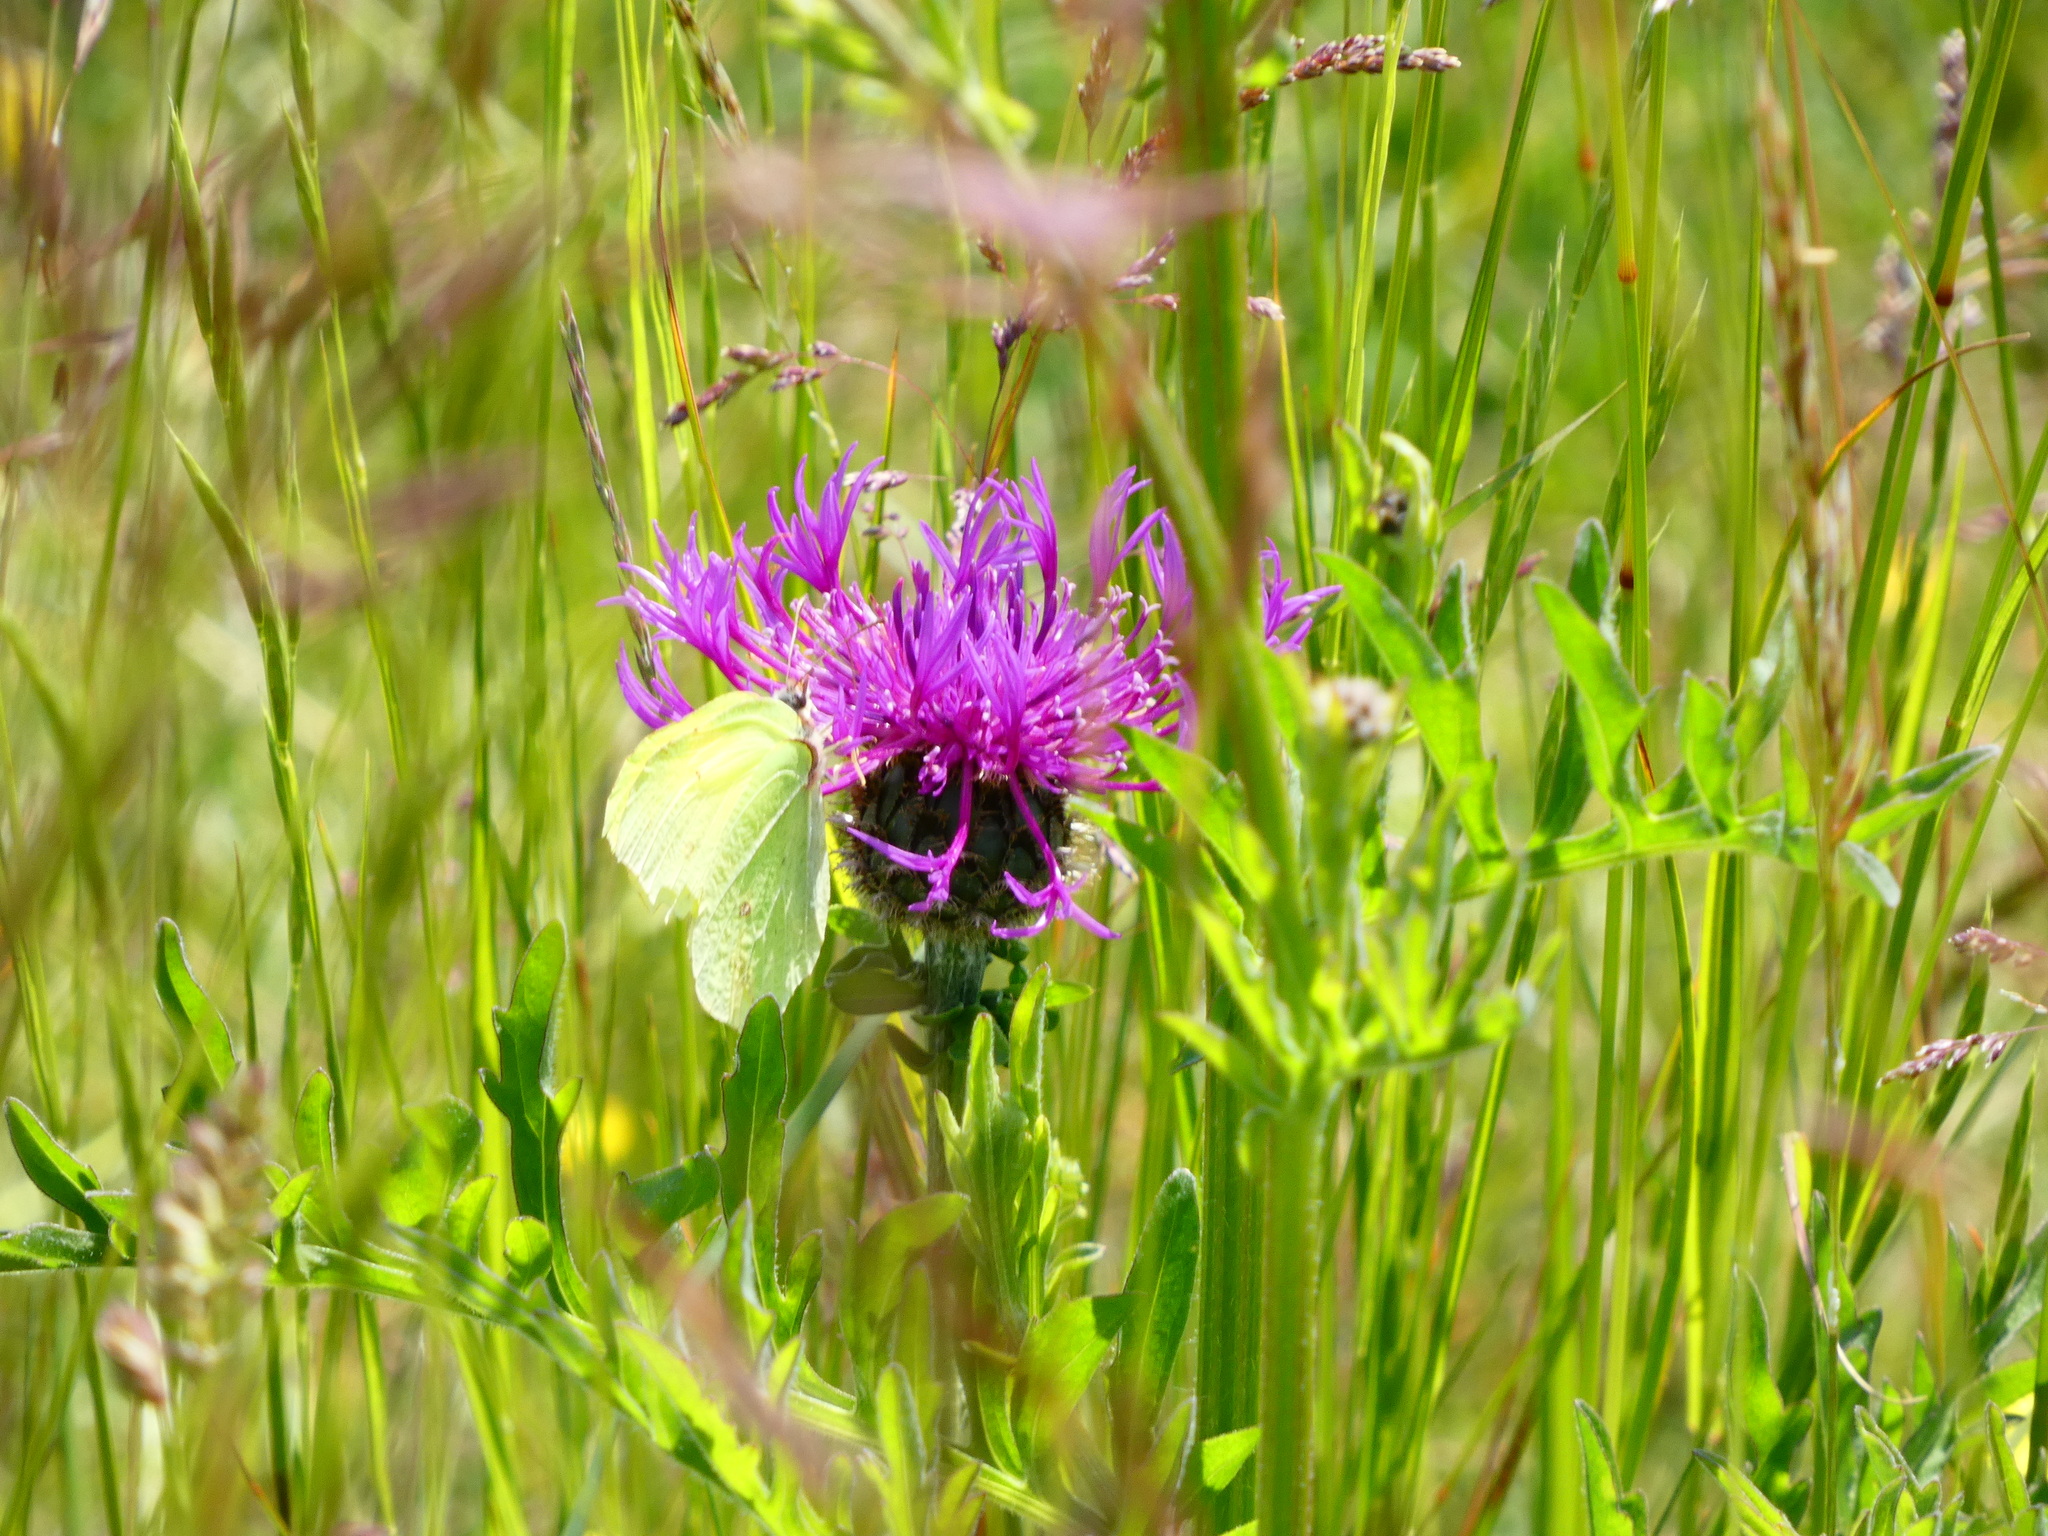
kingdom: Animalia
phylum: Arthropoda
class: Insecta
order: Lepidoptera
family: Pieridae
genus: Gonepteryx
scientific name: Gonepteryx rhamni
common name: Brimstone
